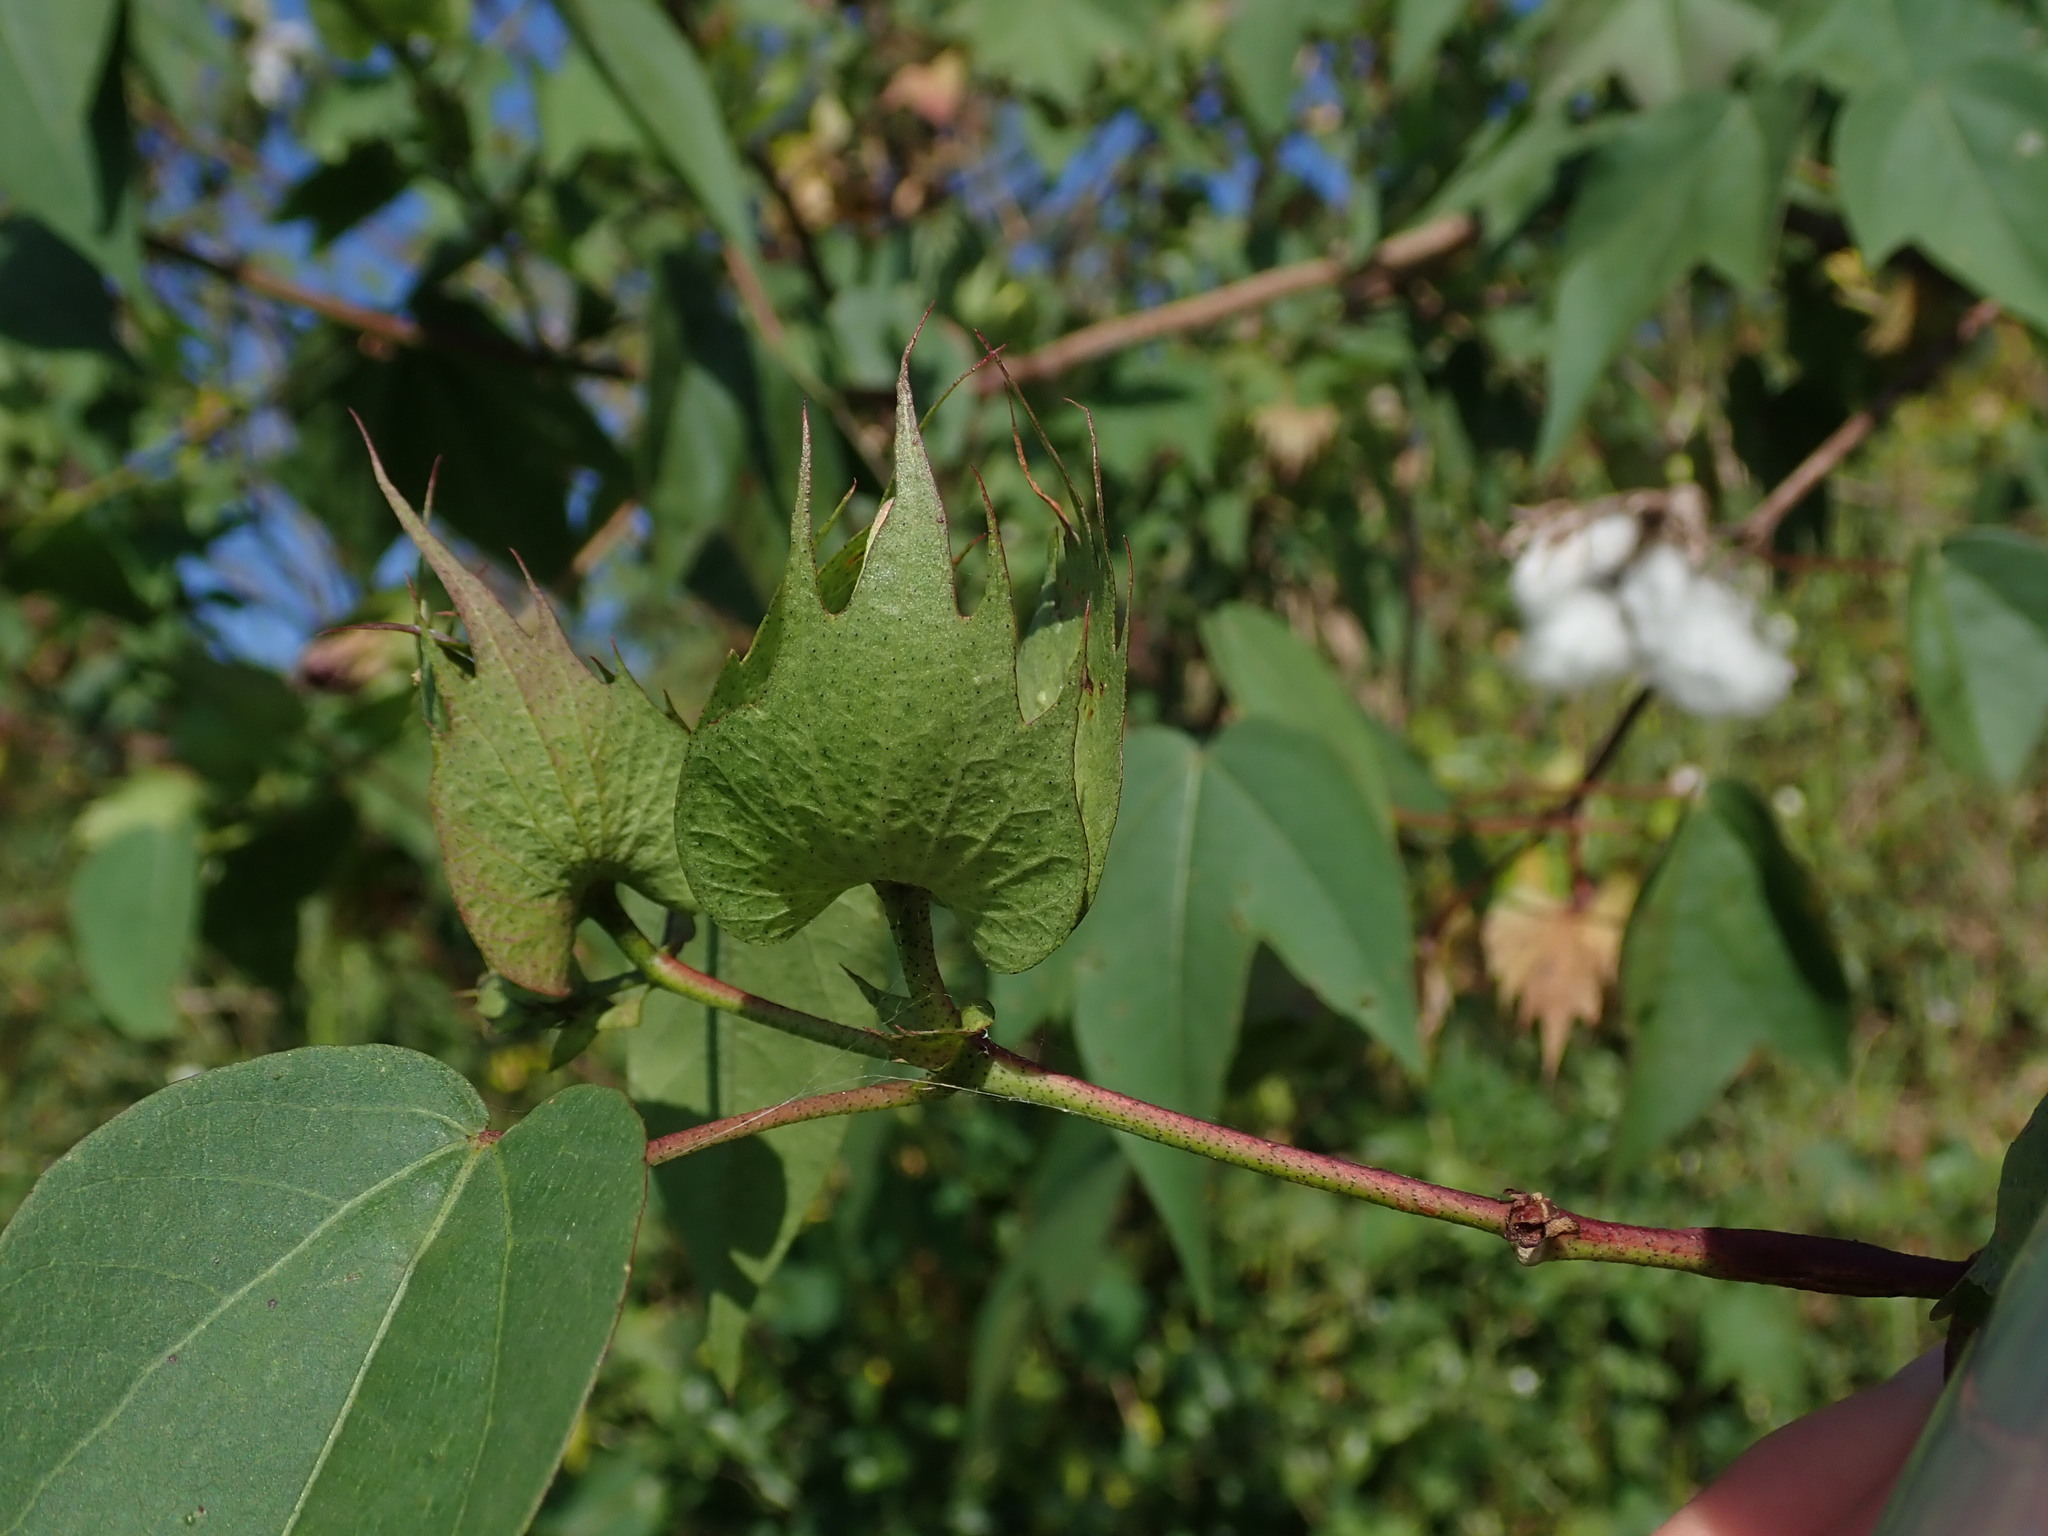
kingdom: Plantae
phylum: Tracheophyta
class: Magnoliopsida
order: Malvales
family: Malvaceae
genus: Gossypium
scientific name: Gossypium hirsutum
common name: Cotton
